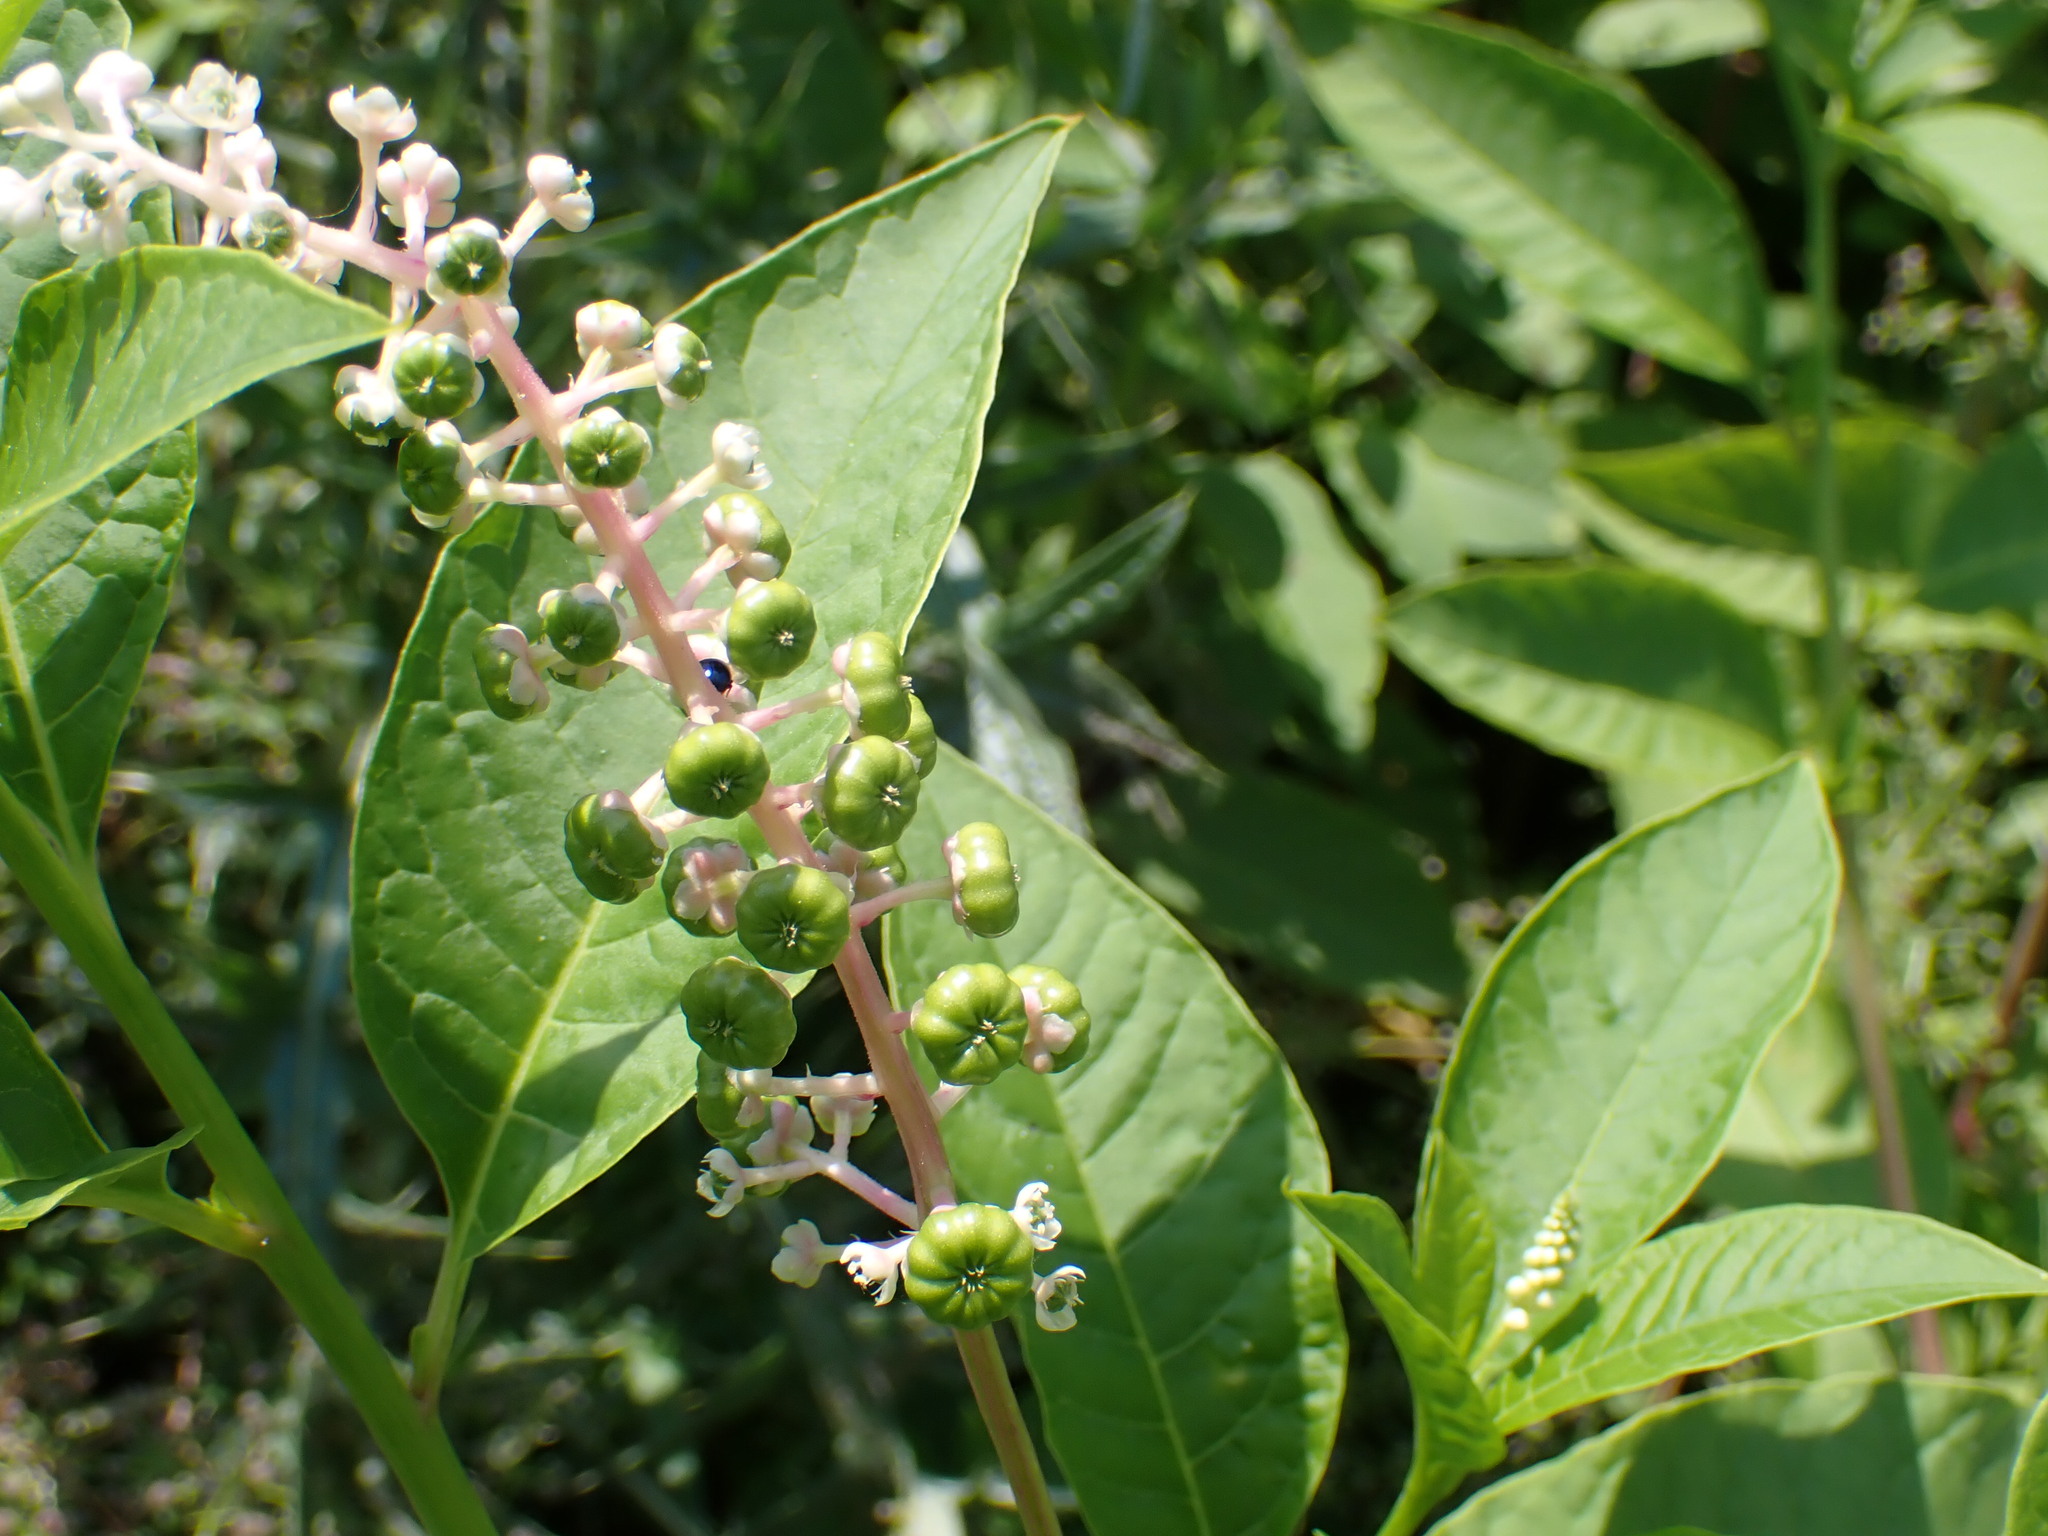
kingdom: Plantae
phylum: Tracheophyta
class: Magnoliopsida
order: Caryophyllales
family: Phytolaccaceae
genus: Phytolacca
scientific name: Phytolacca americana
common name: American pokeweed
